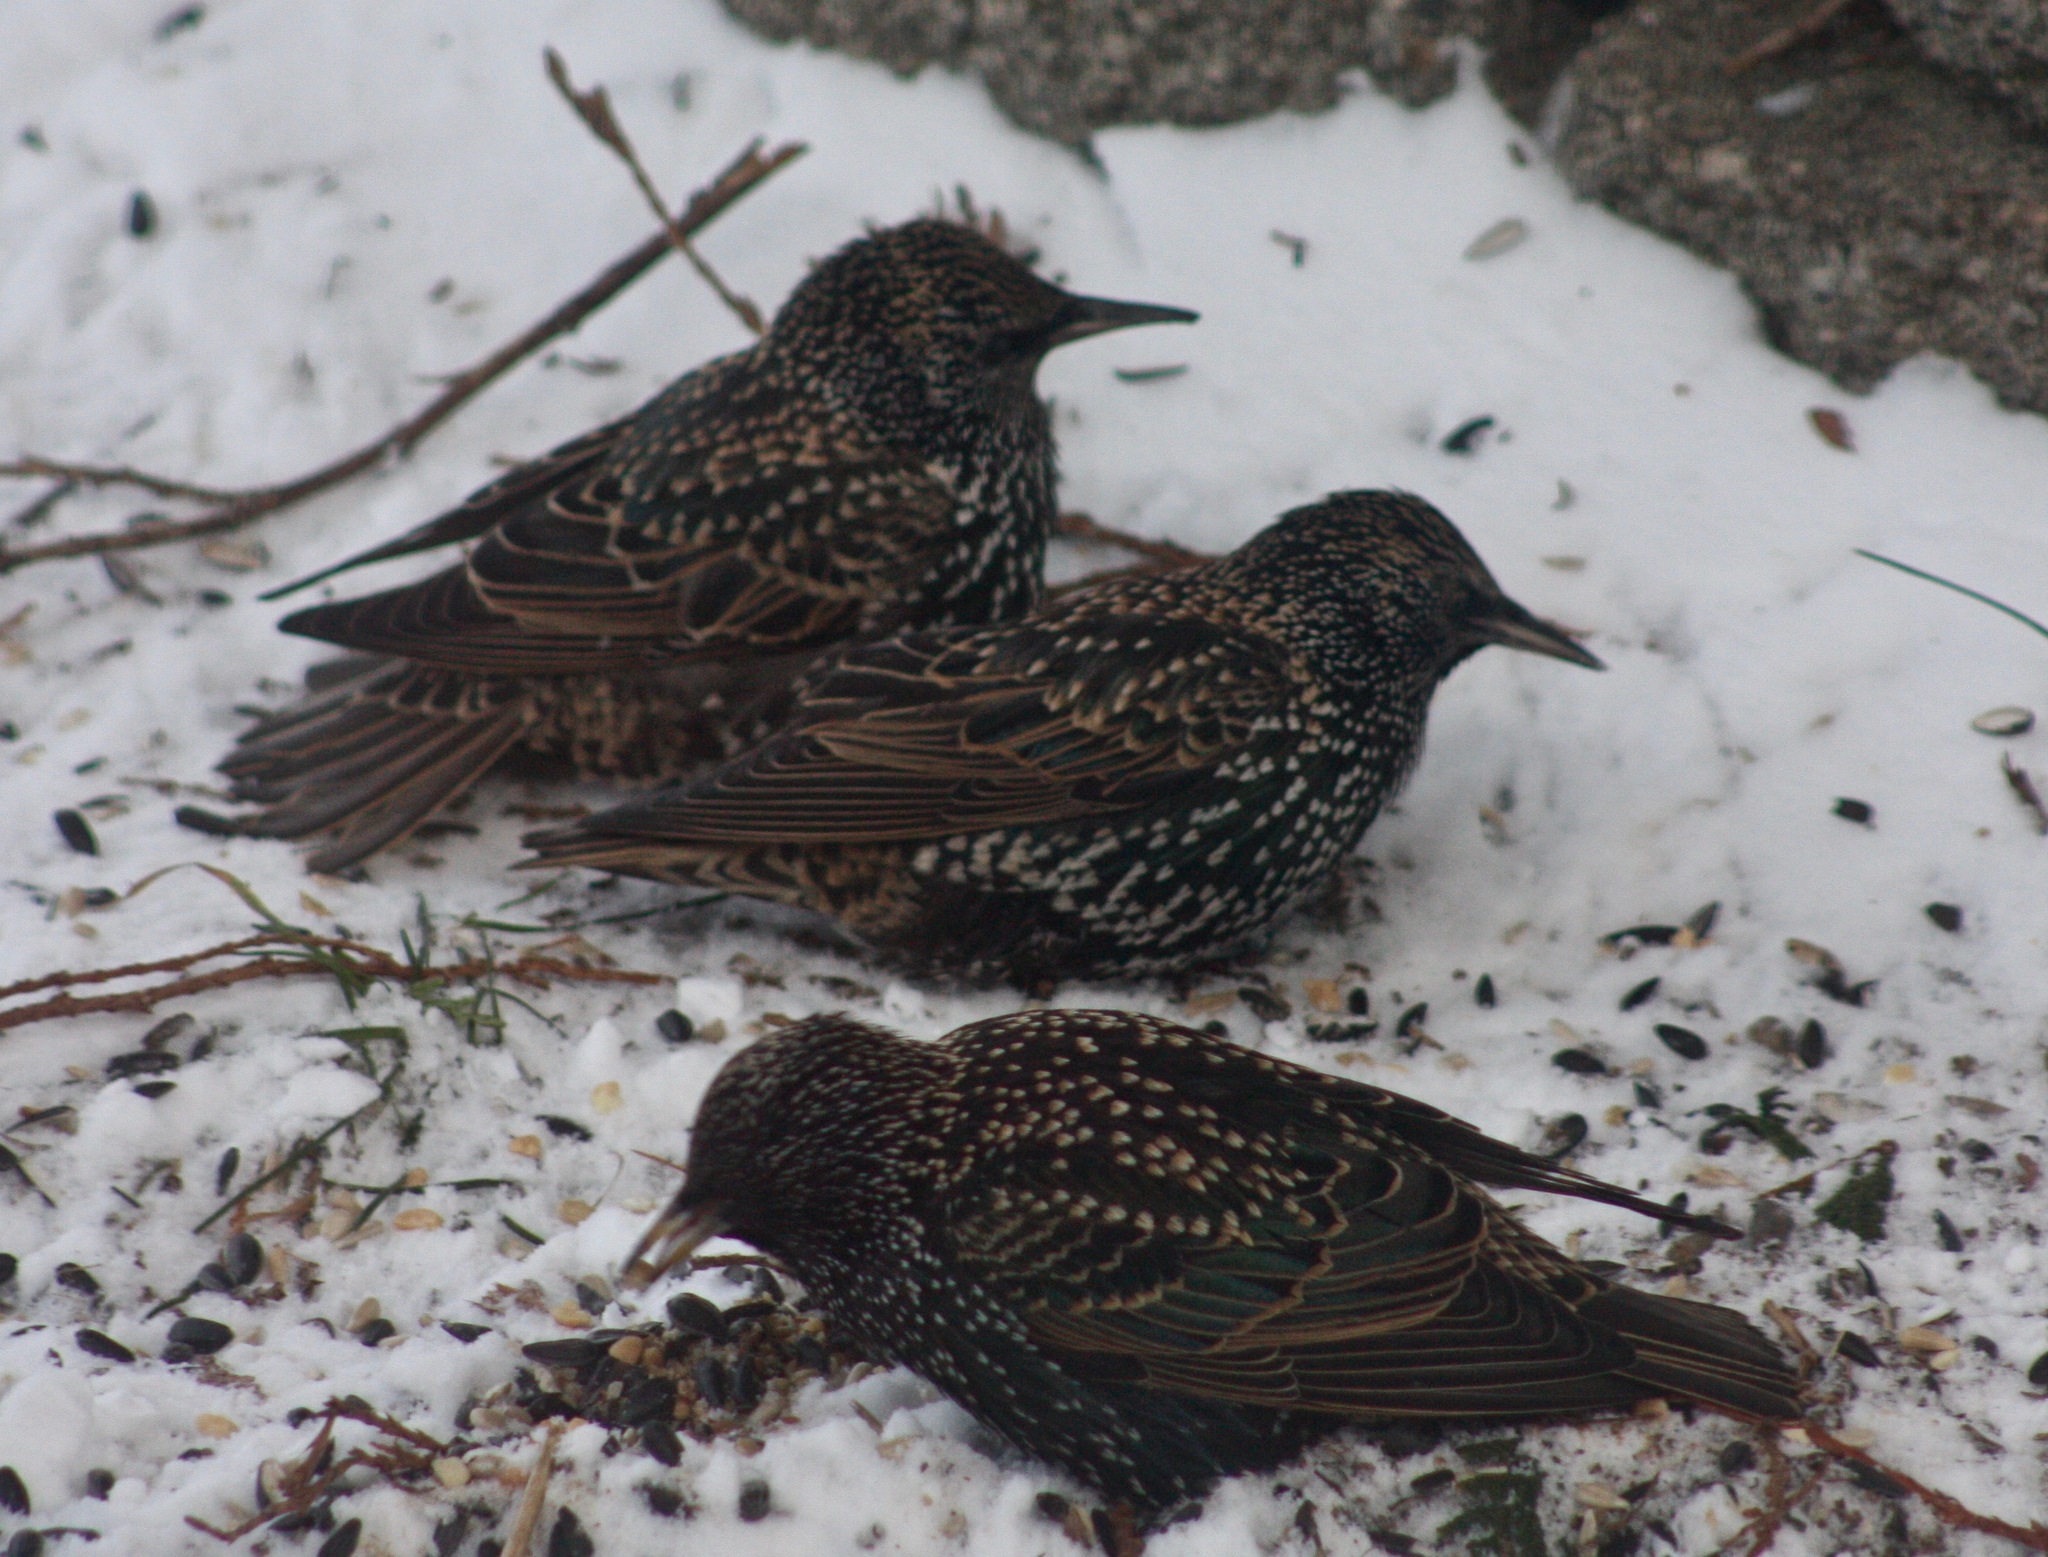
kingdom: Animalia
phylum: Chordata
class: Aves
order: Passeriformes
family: Sturnidae
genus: Sturnus
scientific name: Sturnus vulgaris
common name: Common starling
